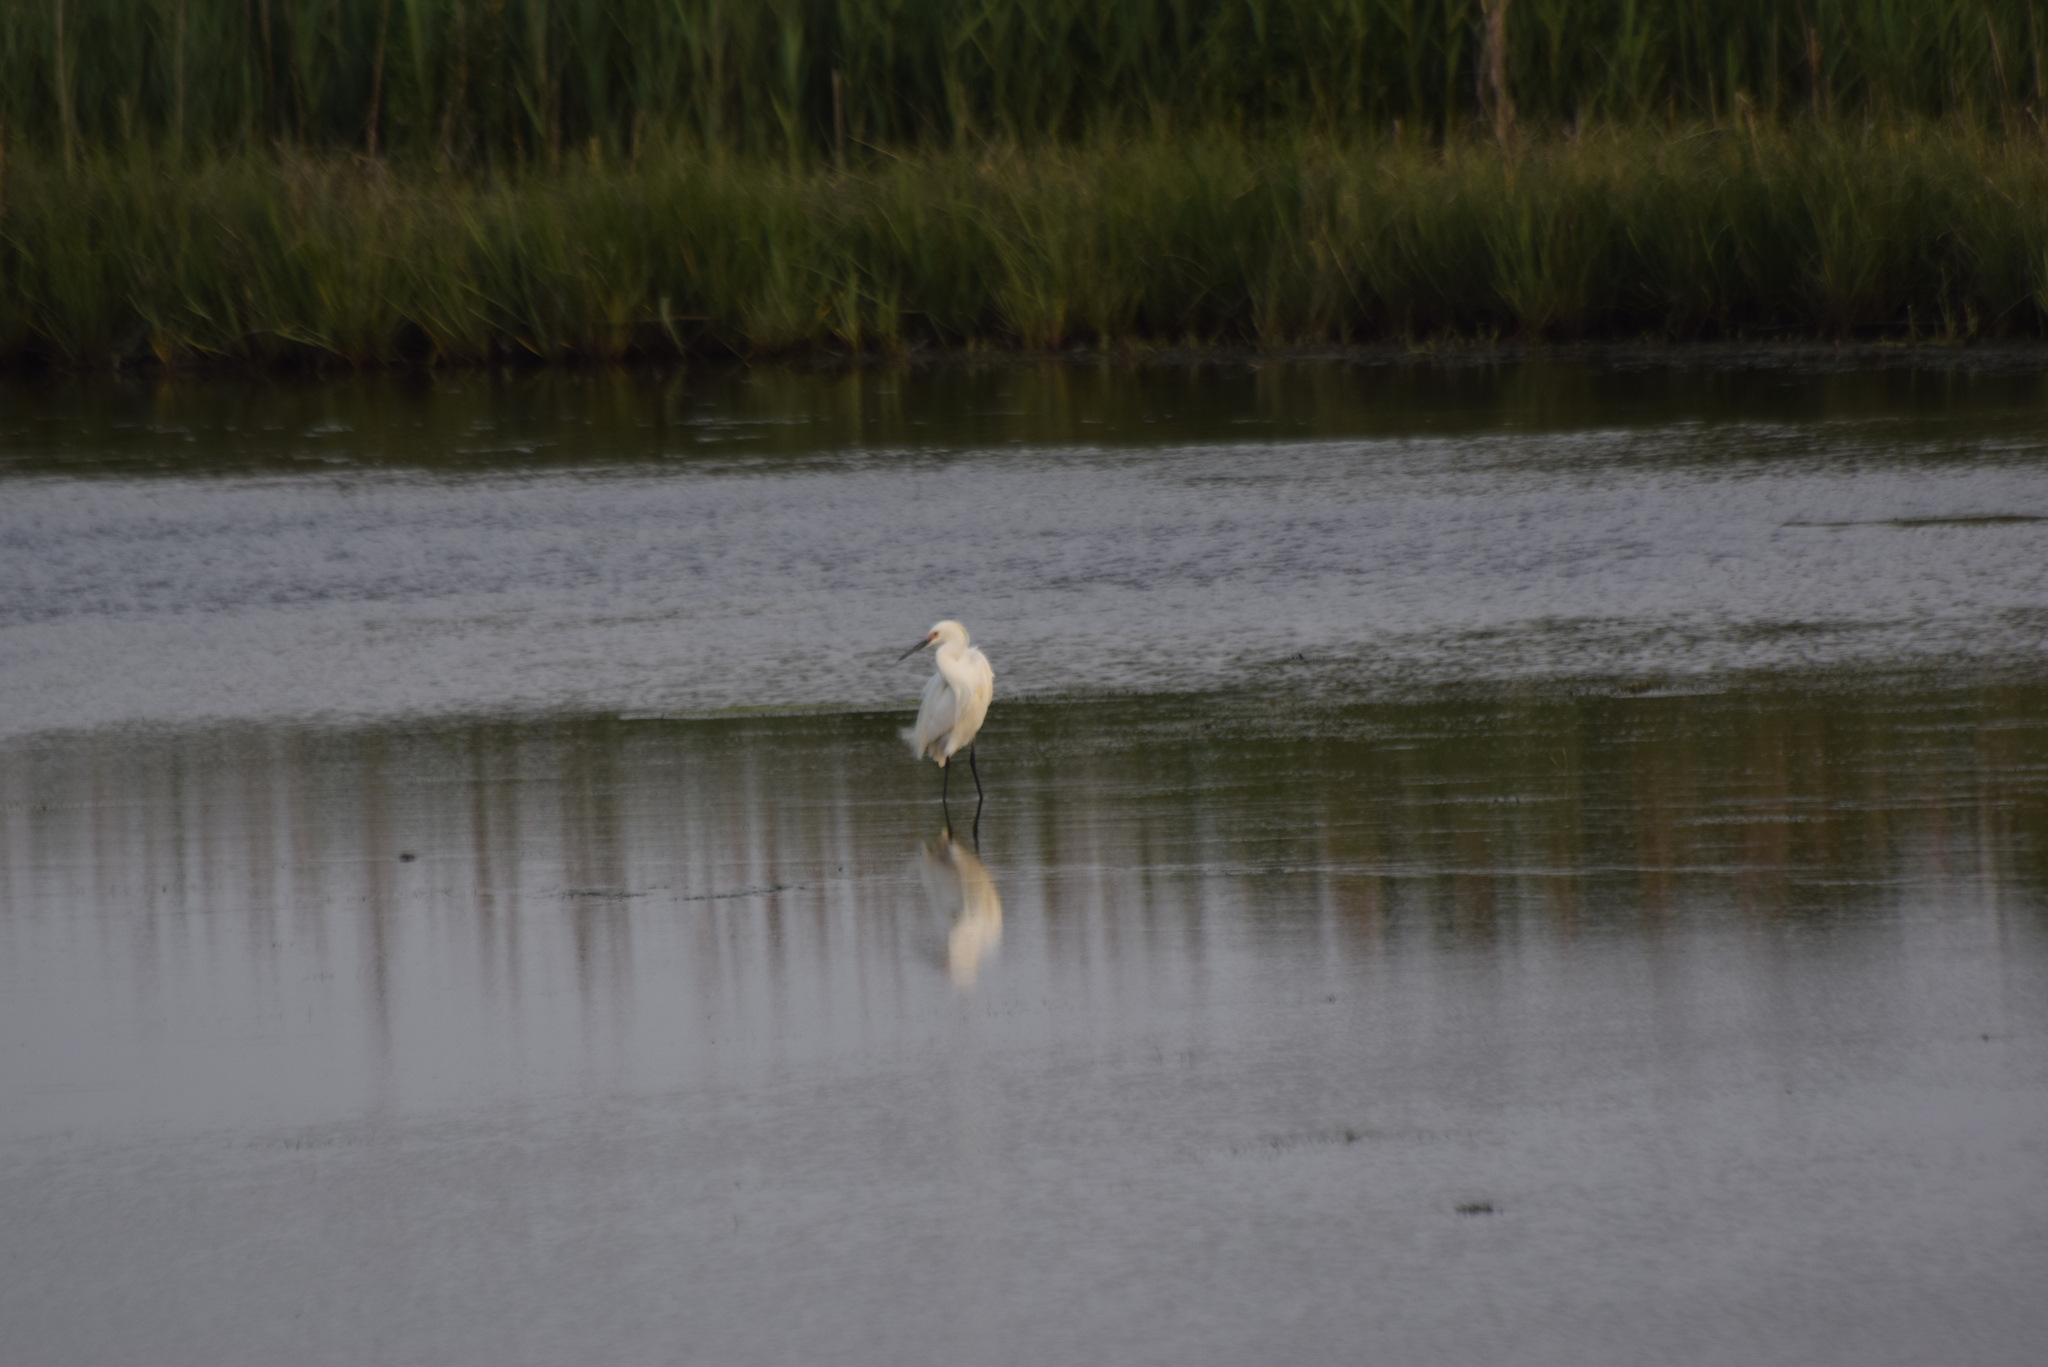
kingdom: Animalia
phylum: Chordata
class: Aves
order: Pelecaniformes
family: Ardeidae
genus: Egretta
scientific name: Egretta thula
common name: Snowy egret
